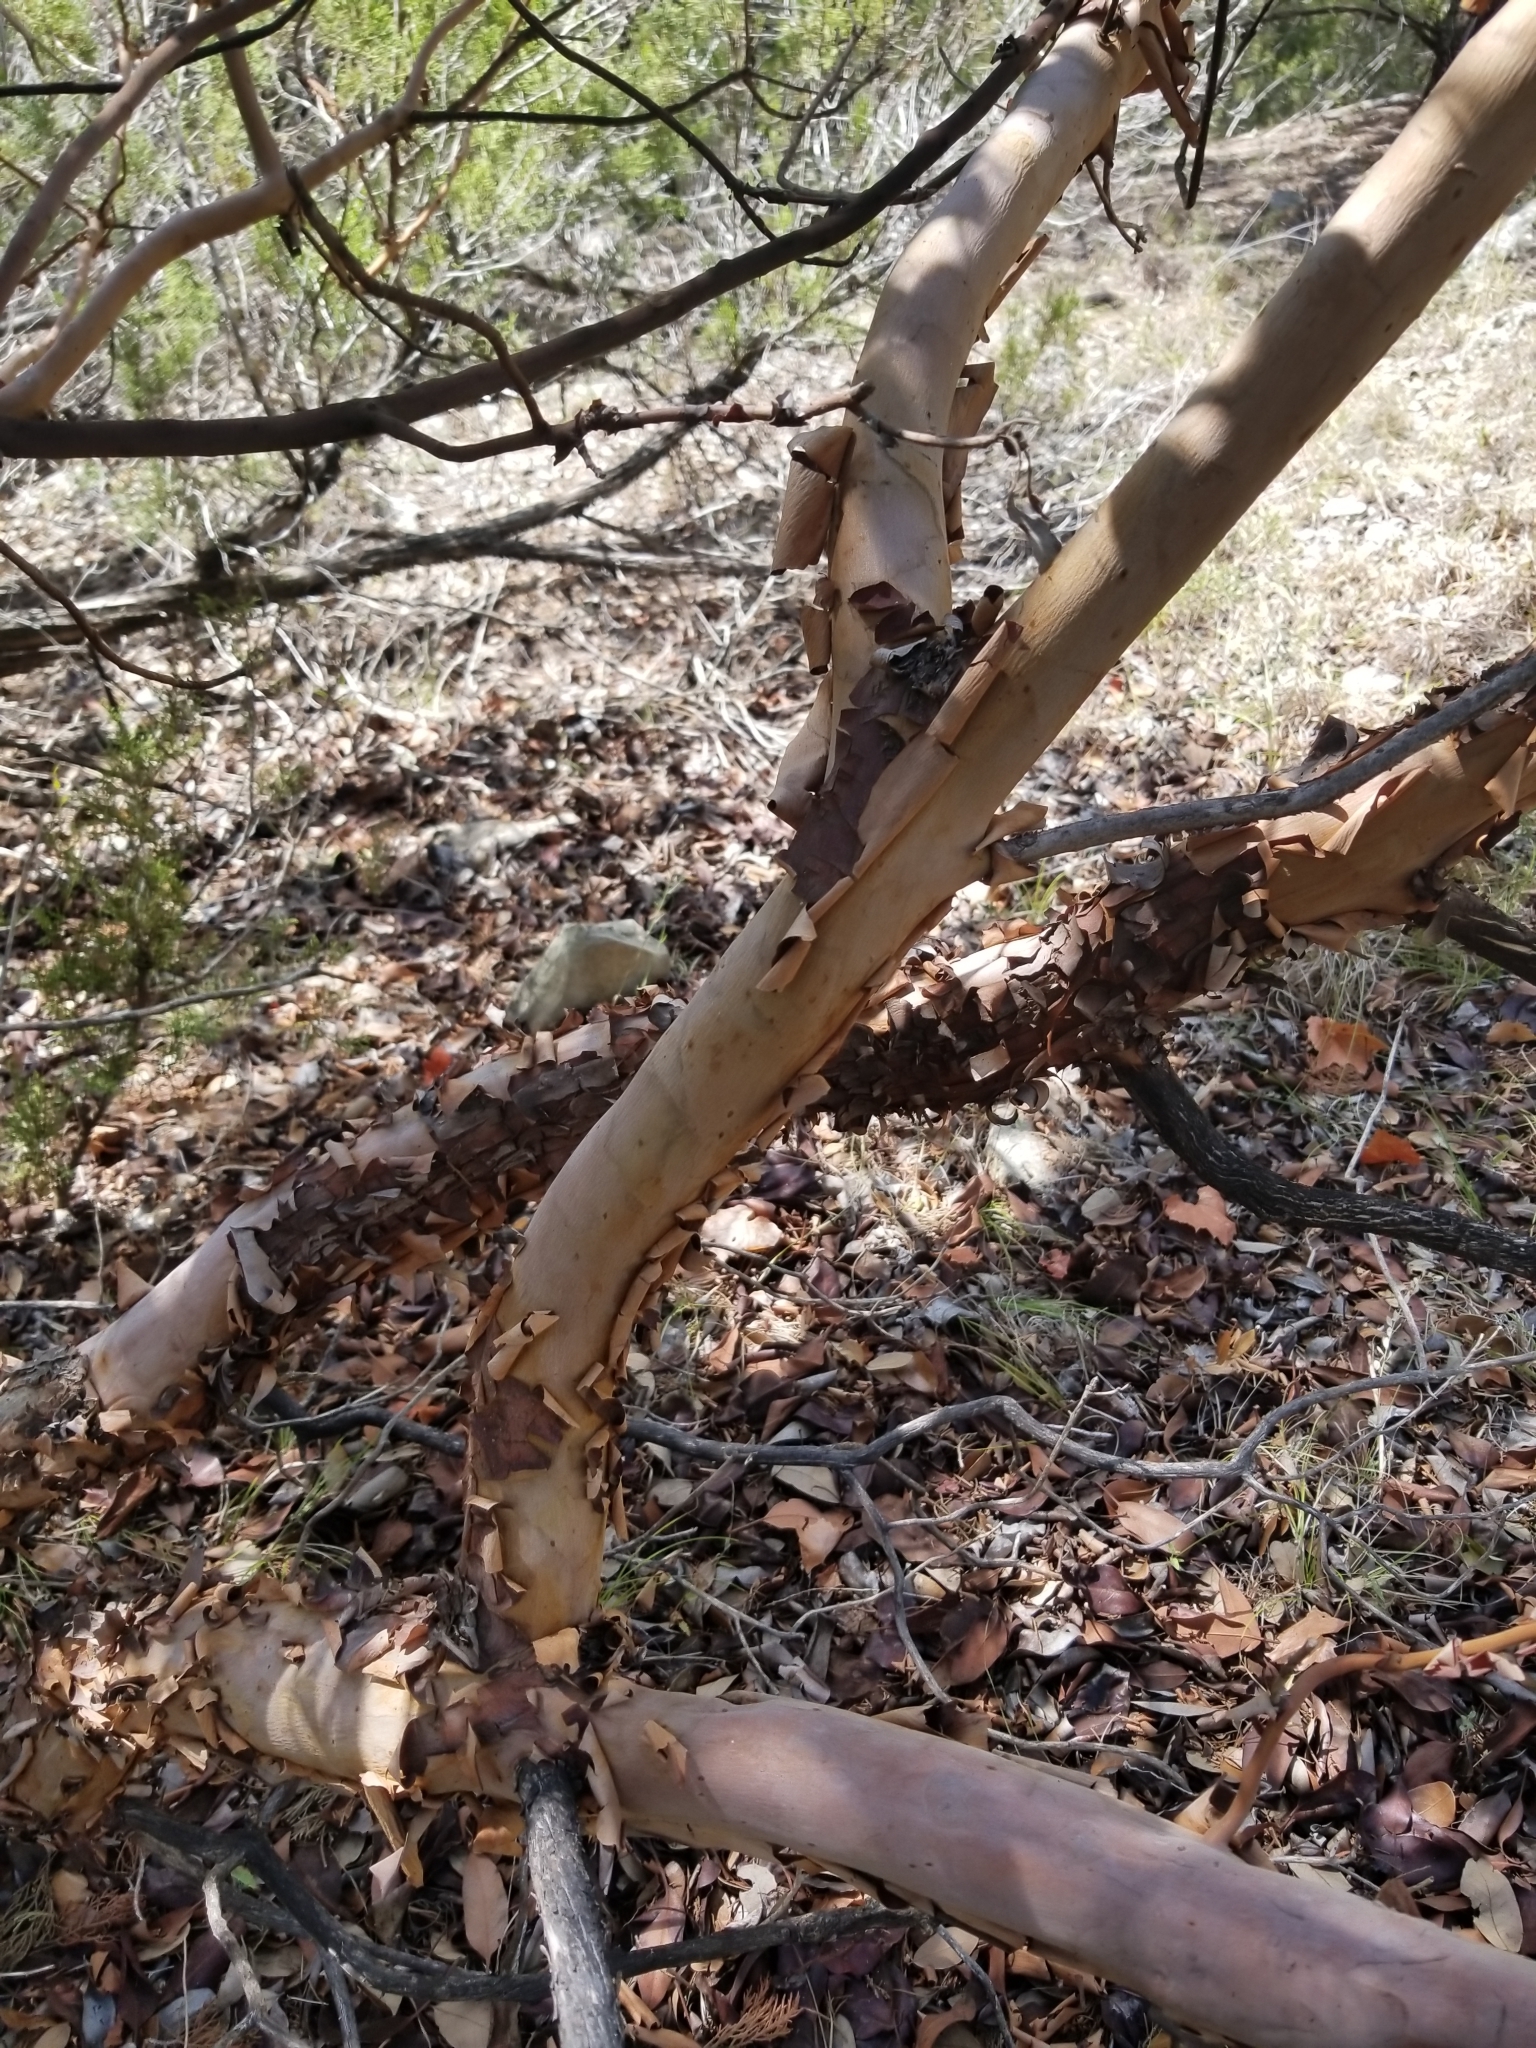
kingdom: Plantae
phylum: Tracheophyta
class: Magnoliopsida
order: Ericales
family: Ericaceae
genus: Arbutus
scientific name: Arbutus xalapensis
